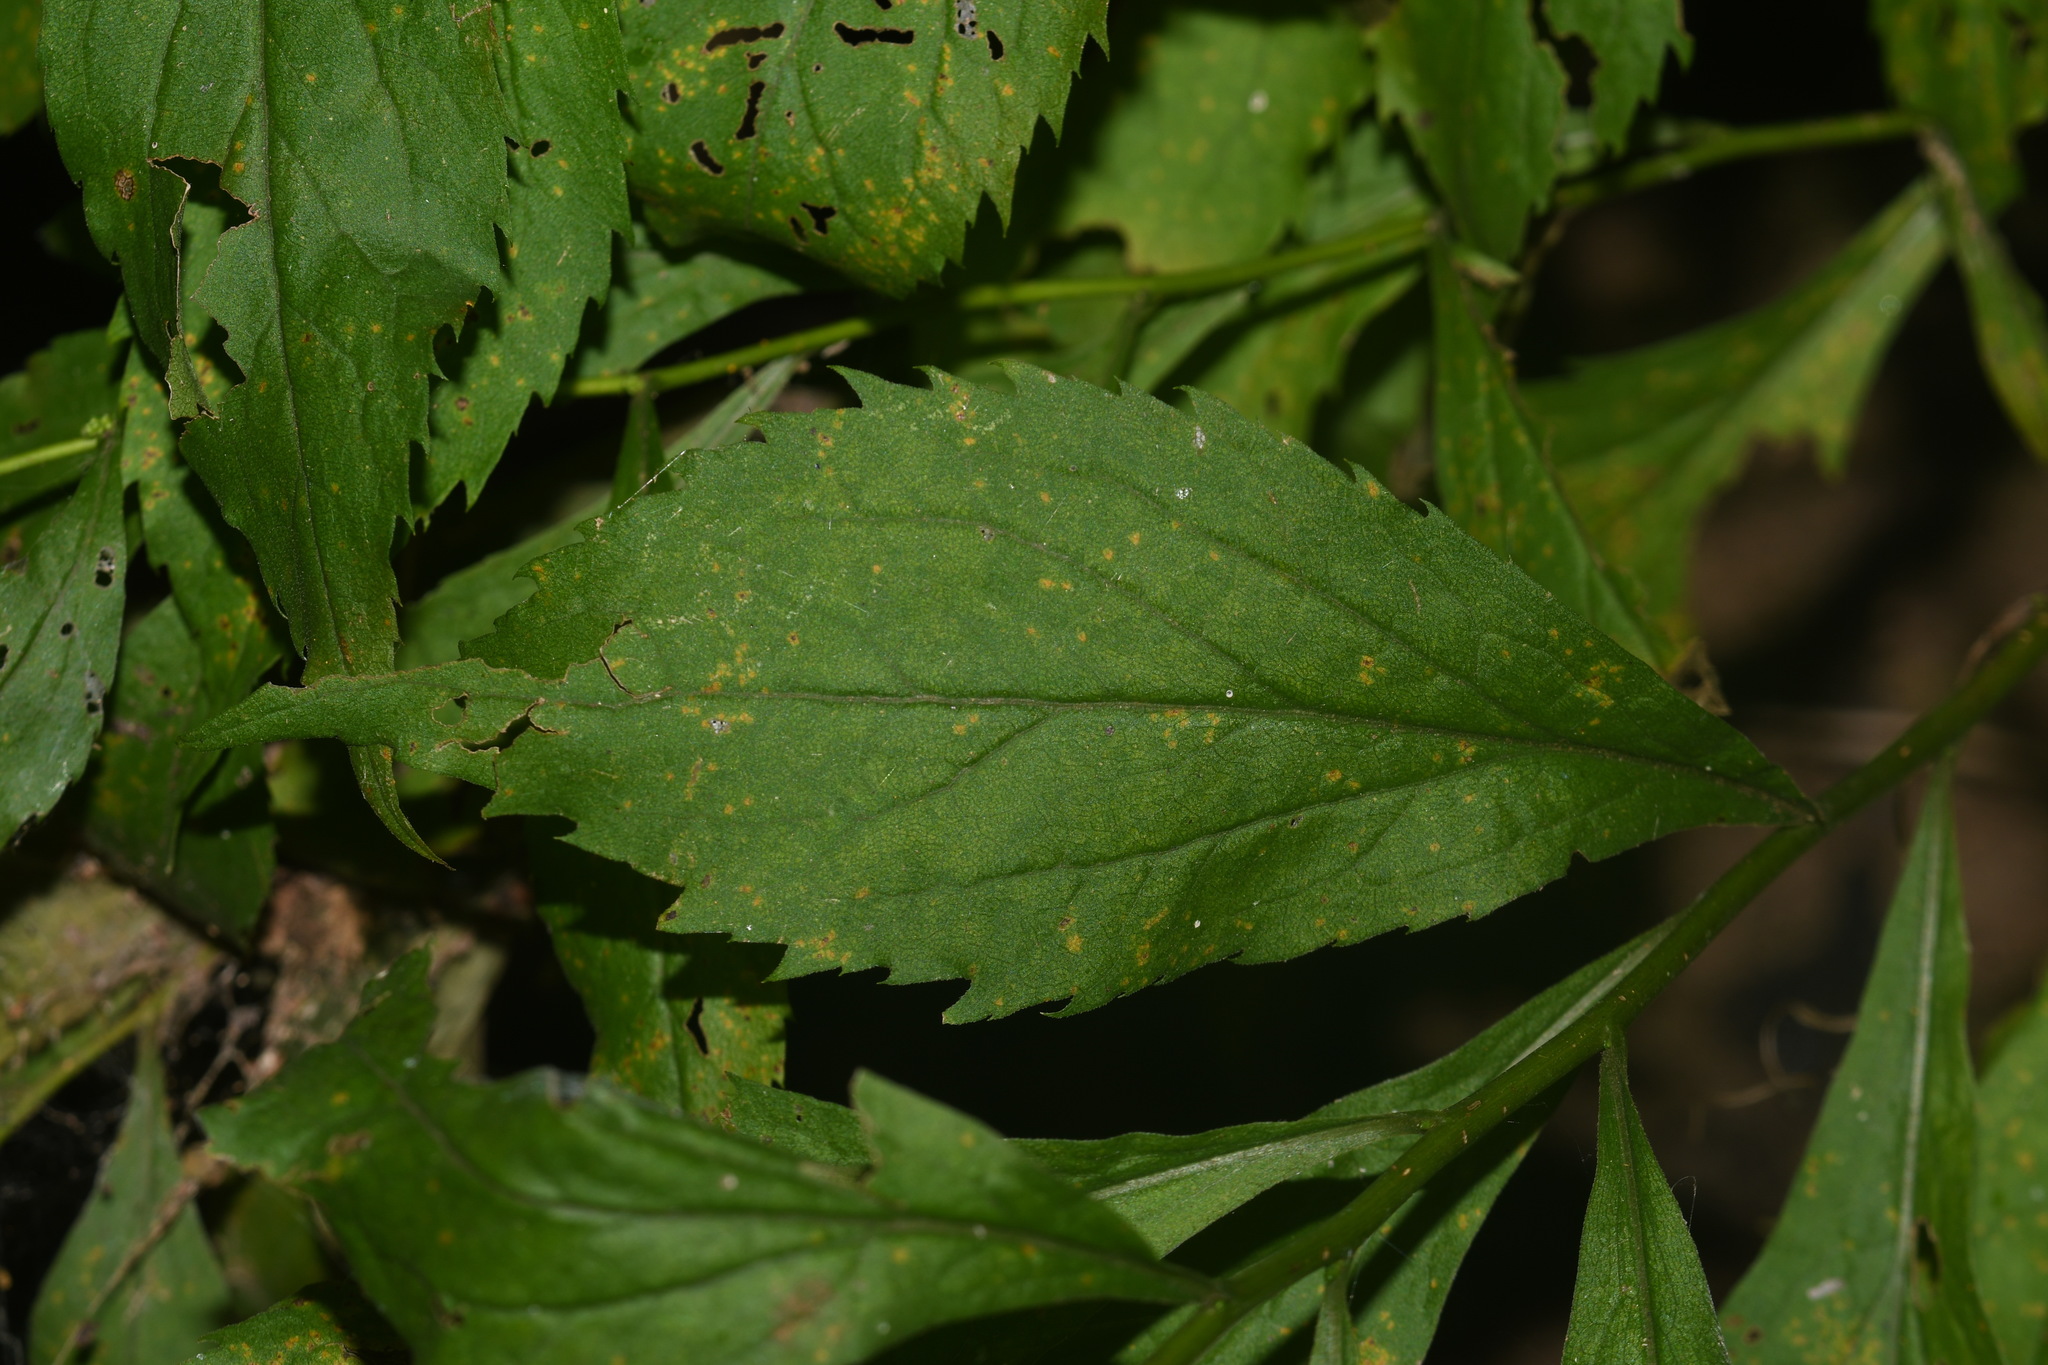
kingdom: Plantae
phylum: Tracheophyta
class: Magnoliopsida
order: Asterales
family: Asteraceae
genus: Solidago
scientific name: Solidago rugosa
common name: Rough-stemmed goldenrod
